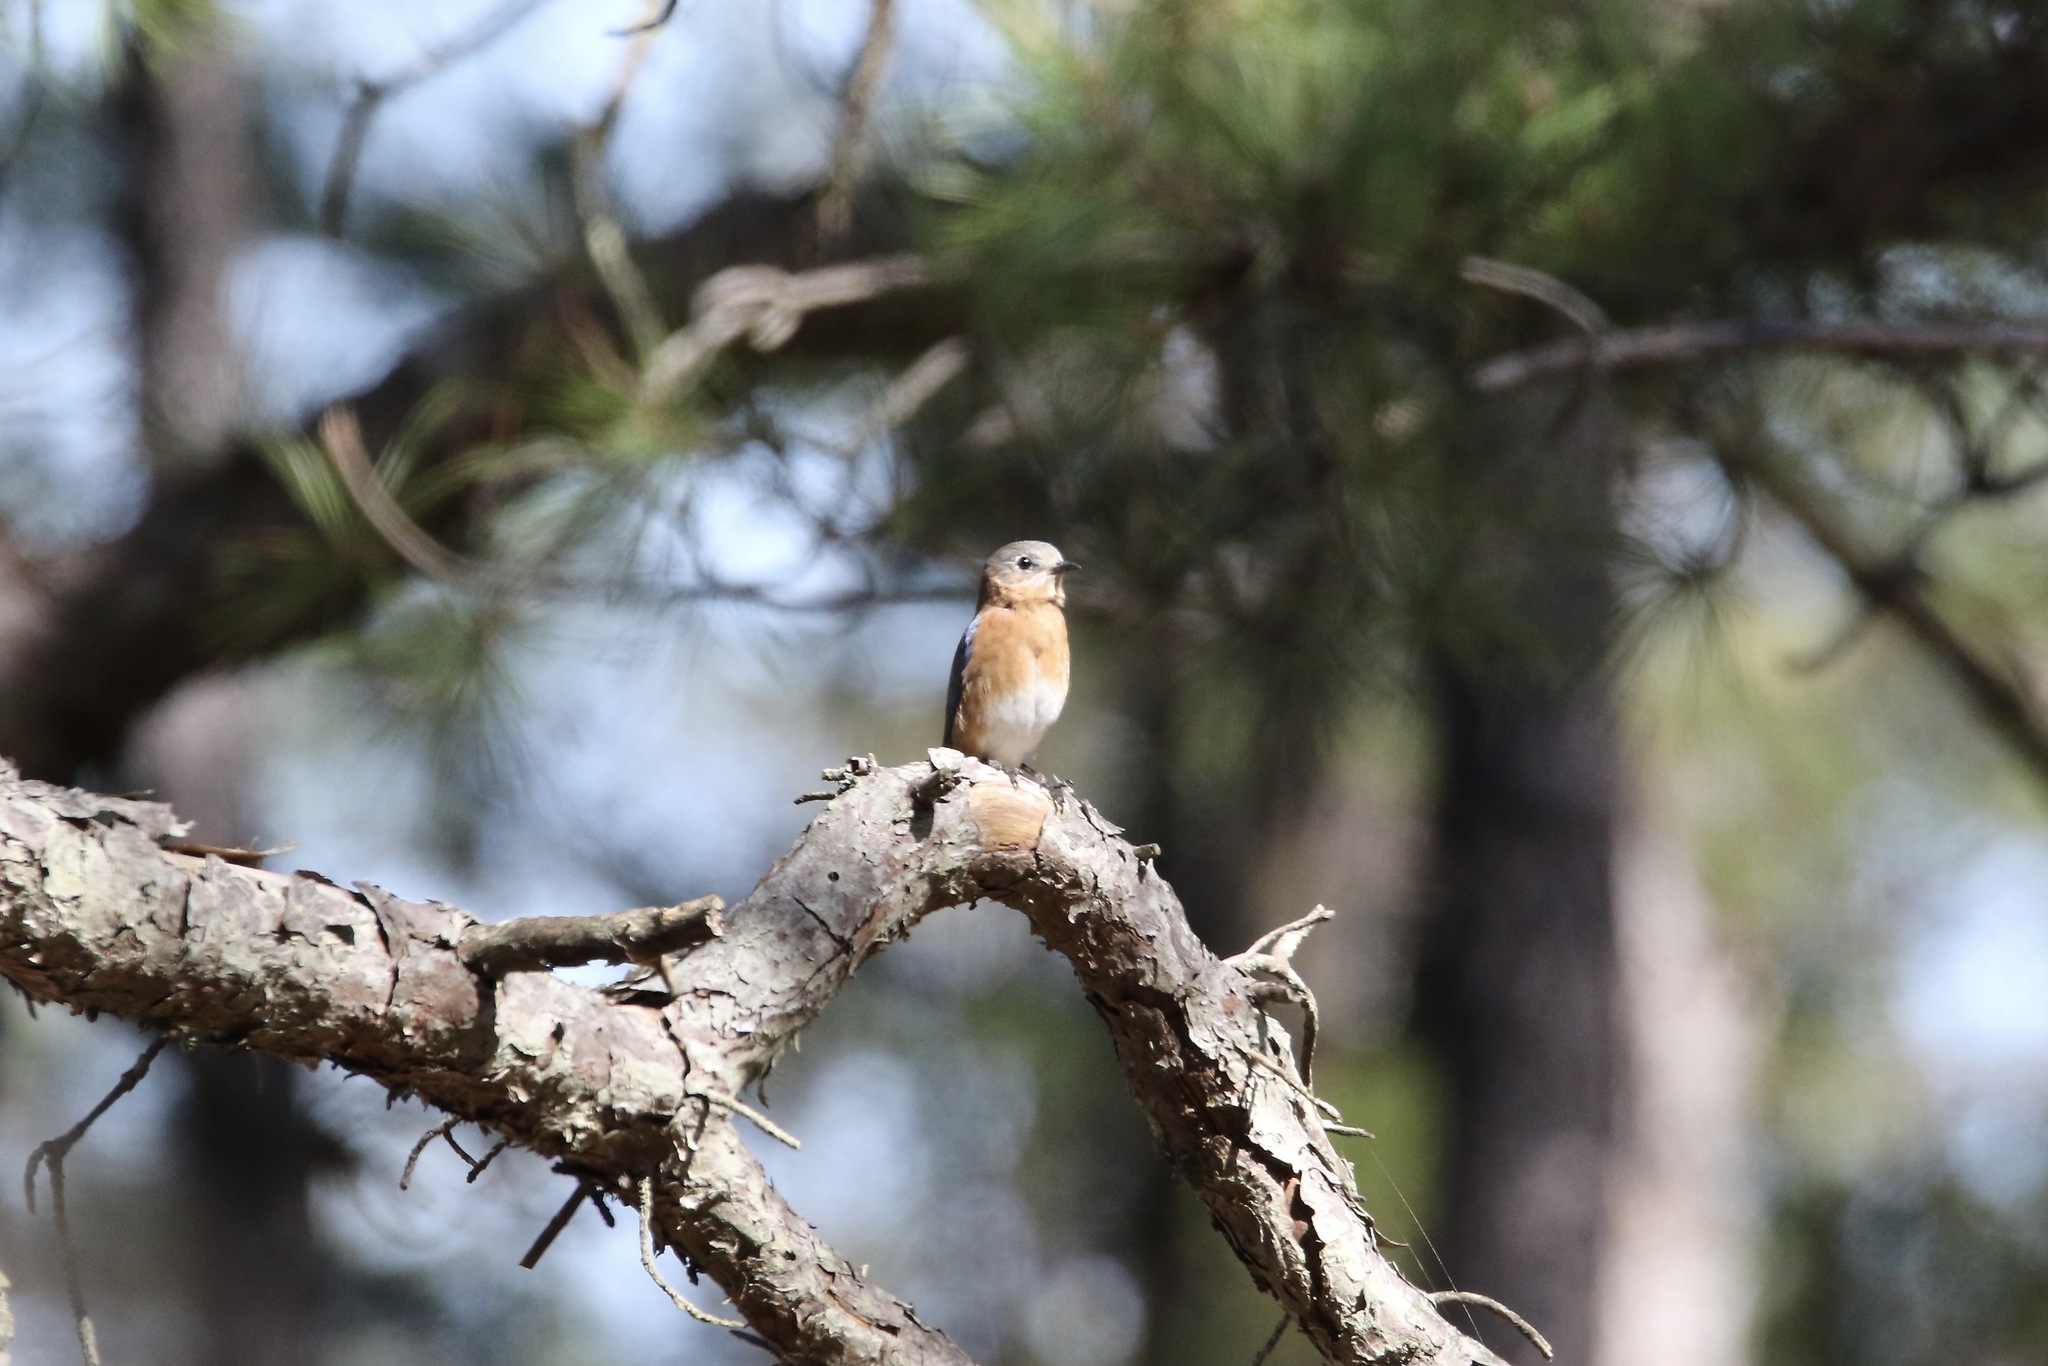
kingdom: Animalia
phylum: Chordata
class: Aves
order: Passeriformes
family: Turdidae
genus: Sialia
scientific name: Sialia sialis
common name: Eastern bluebird
